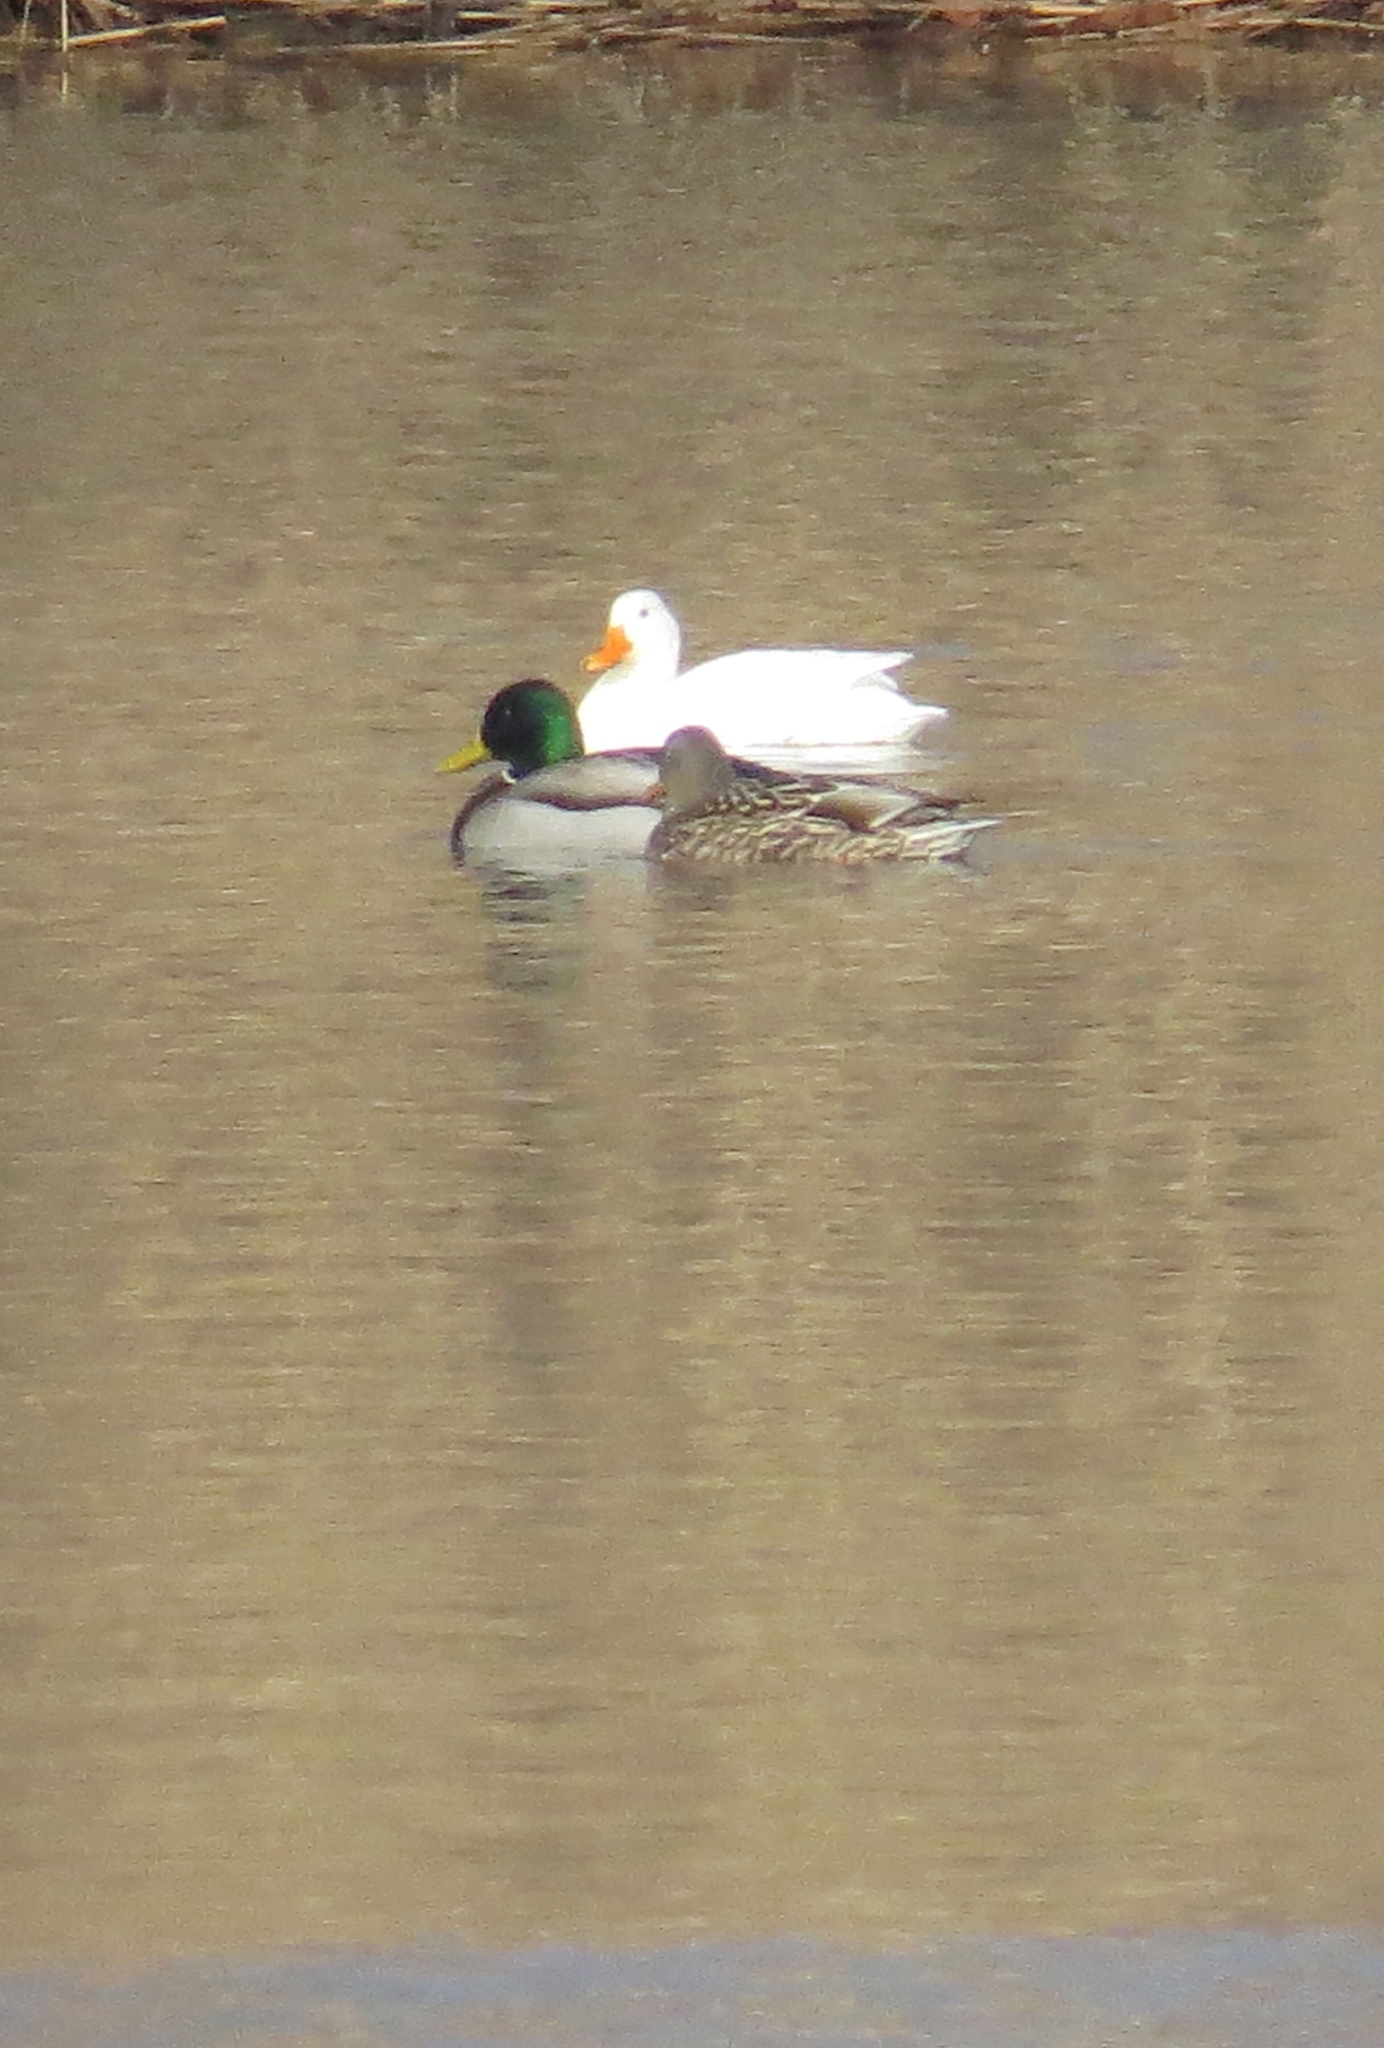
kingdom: Animalia
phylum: Chordata
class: Aves
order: Anseriformes
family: Anatidae
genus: Anas
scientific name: Anas platyrhynchos
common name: Mallard
